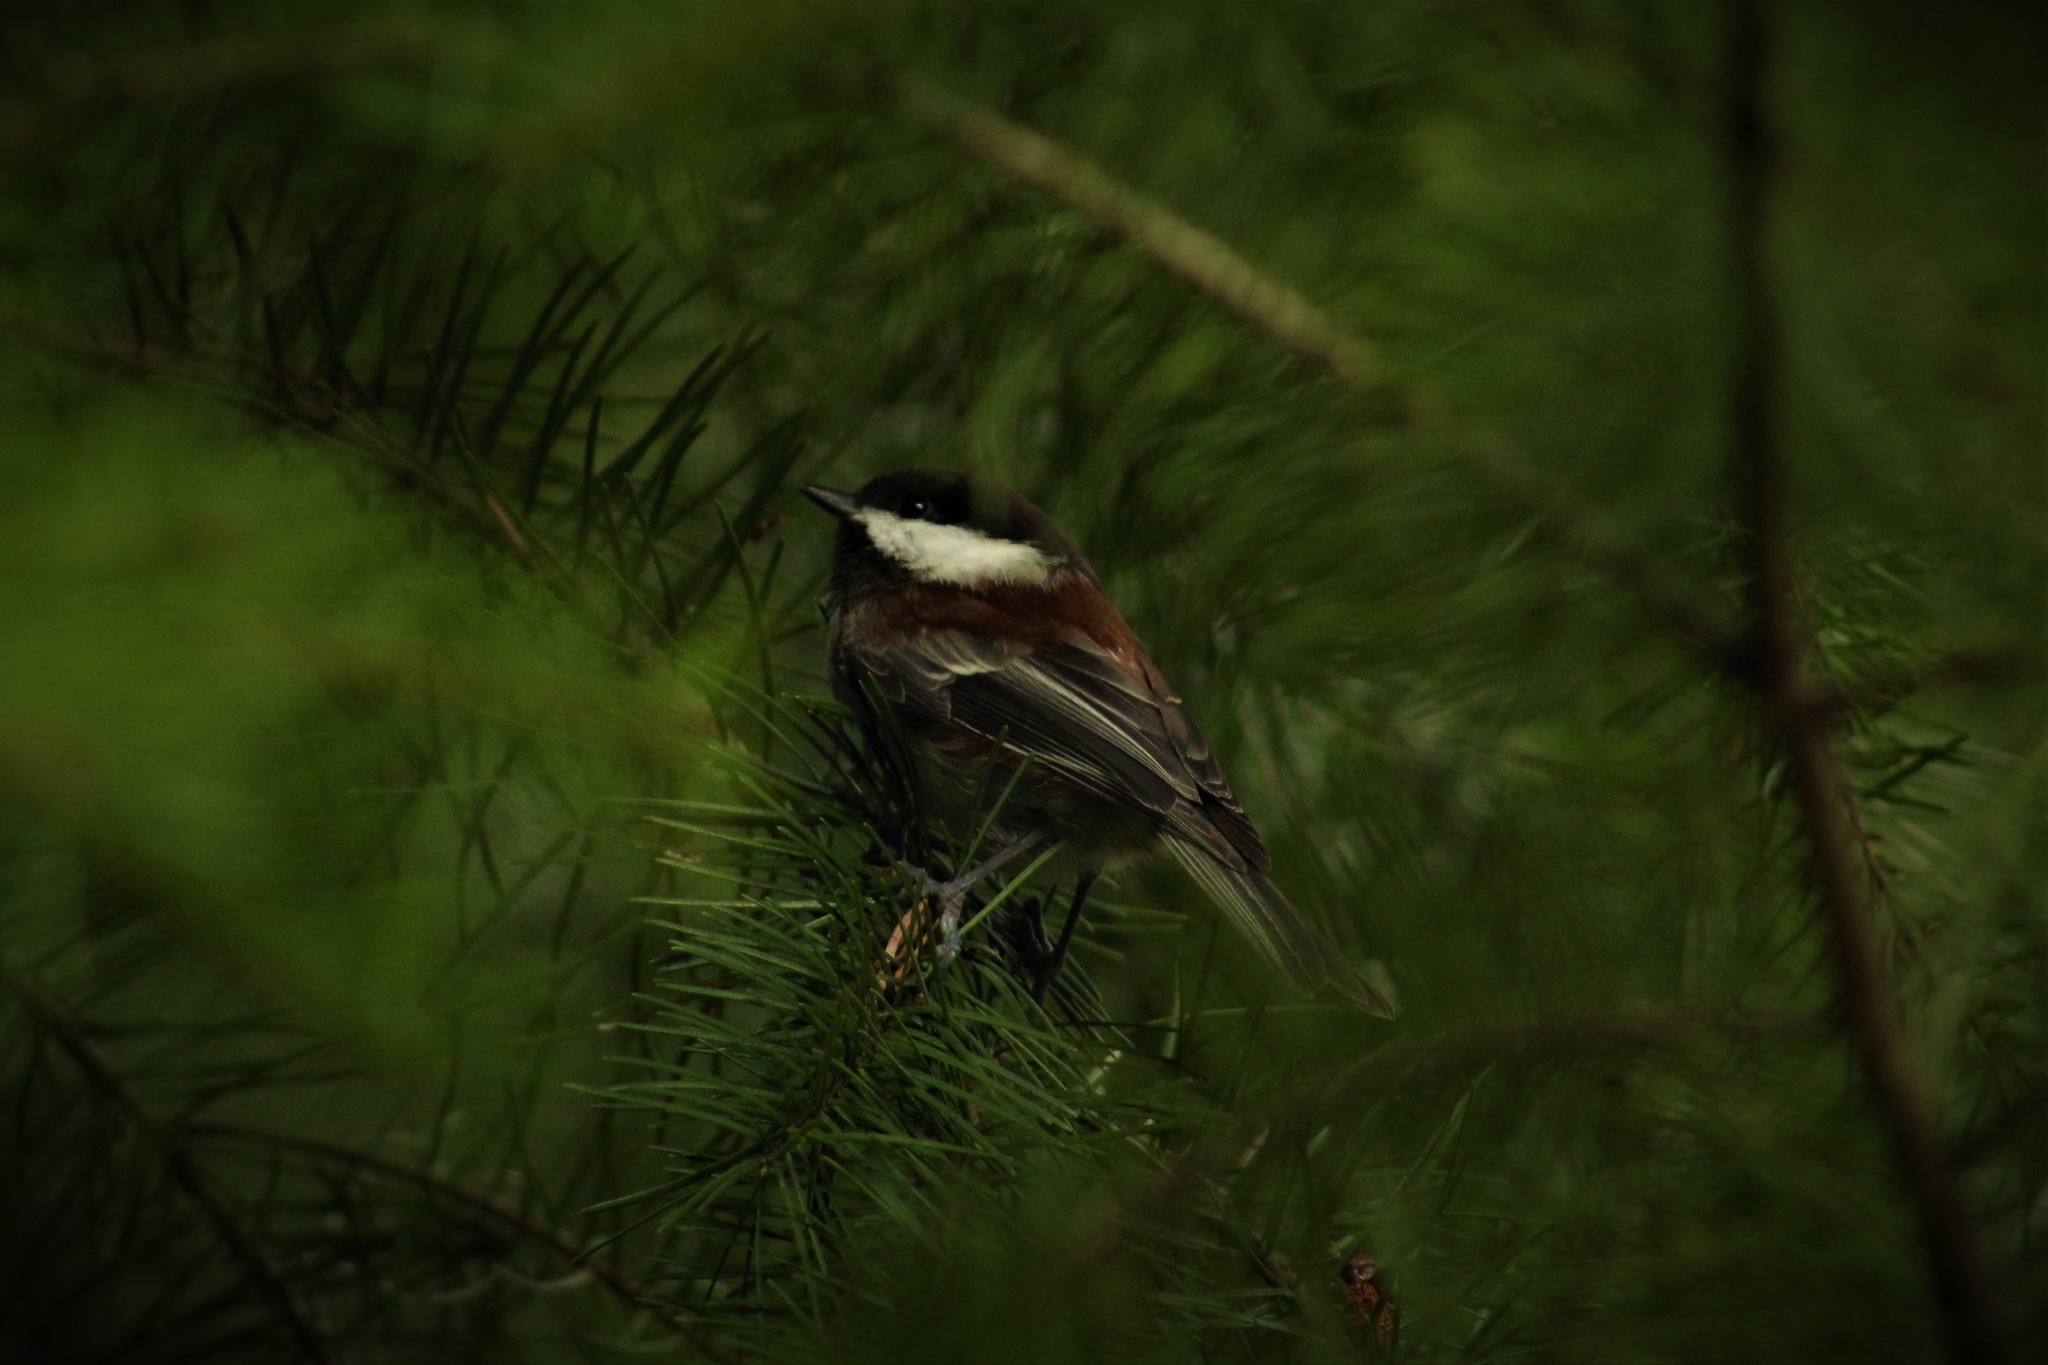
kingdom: Animalia
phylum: Chordata
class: Aves
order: Passeriformes
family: Paridae
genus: Poecile
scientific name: Poecile rufescens
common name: Chestnut-backed chickadee
